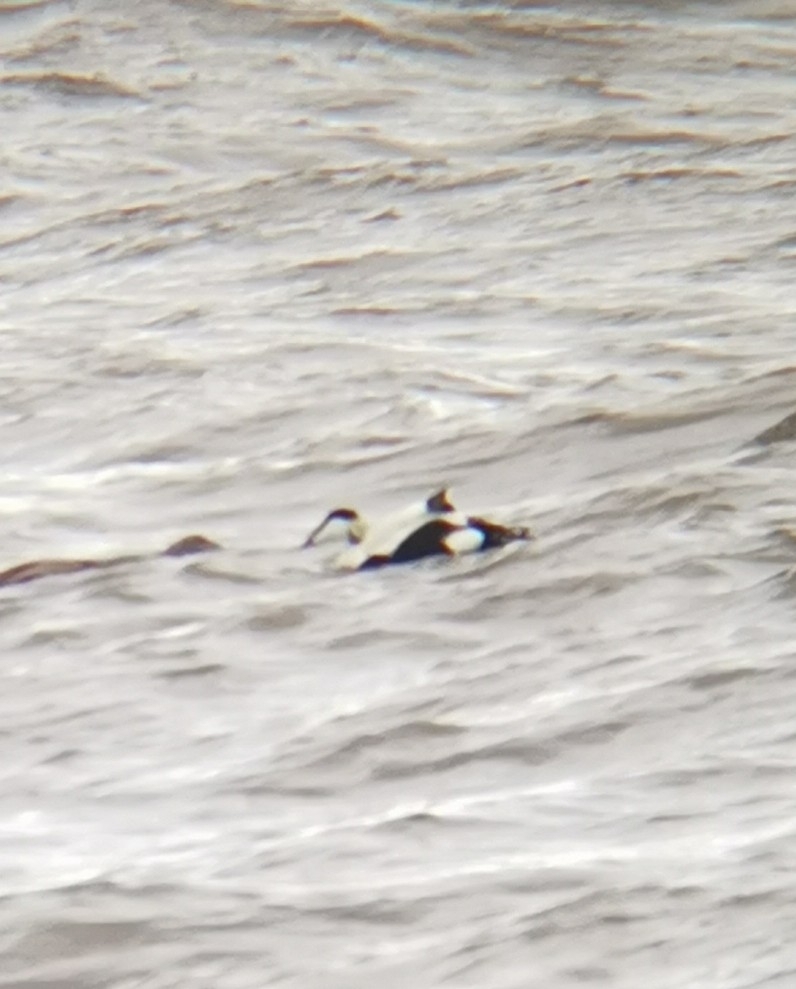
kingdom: Animalia
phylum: Chordata
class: Aves
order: Anseriformes
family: Anatidae
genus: Somateria
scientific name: Somateria mollissima
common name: Common eider
